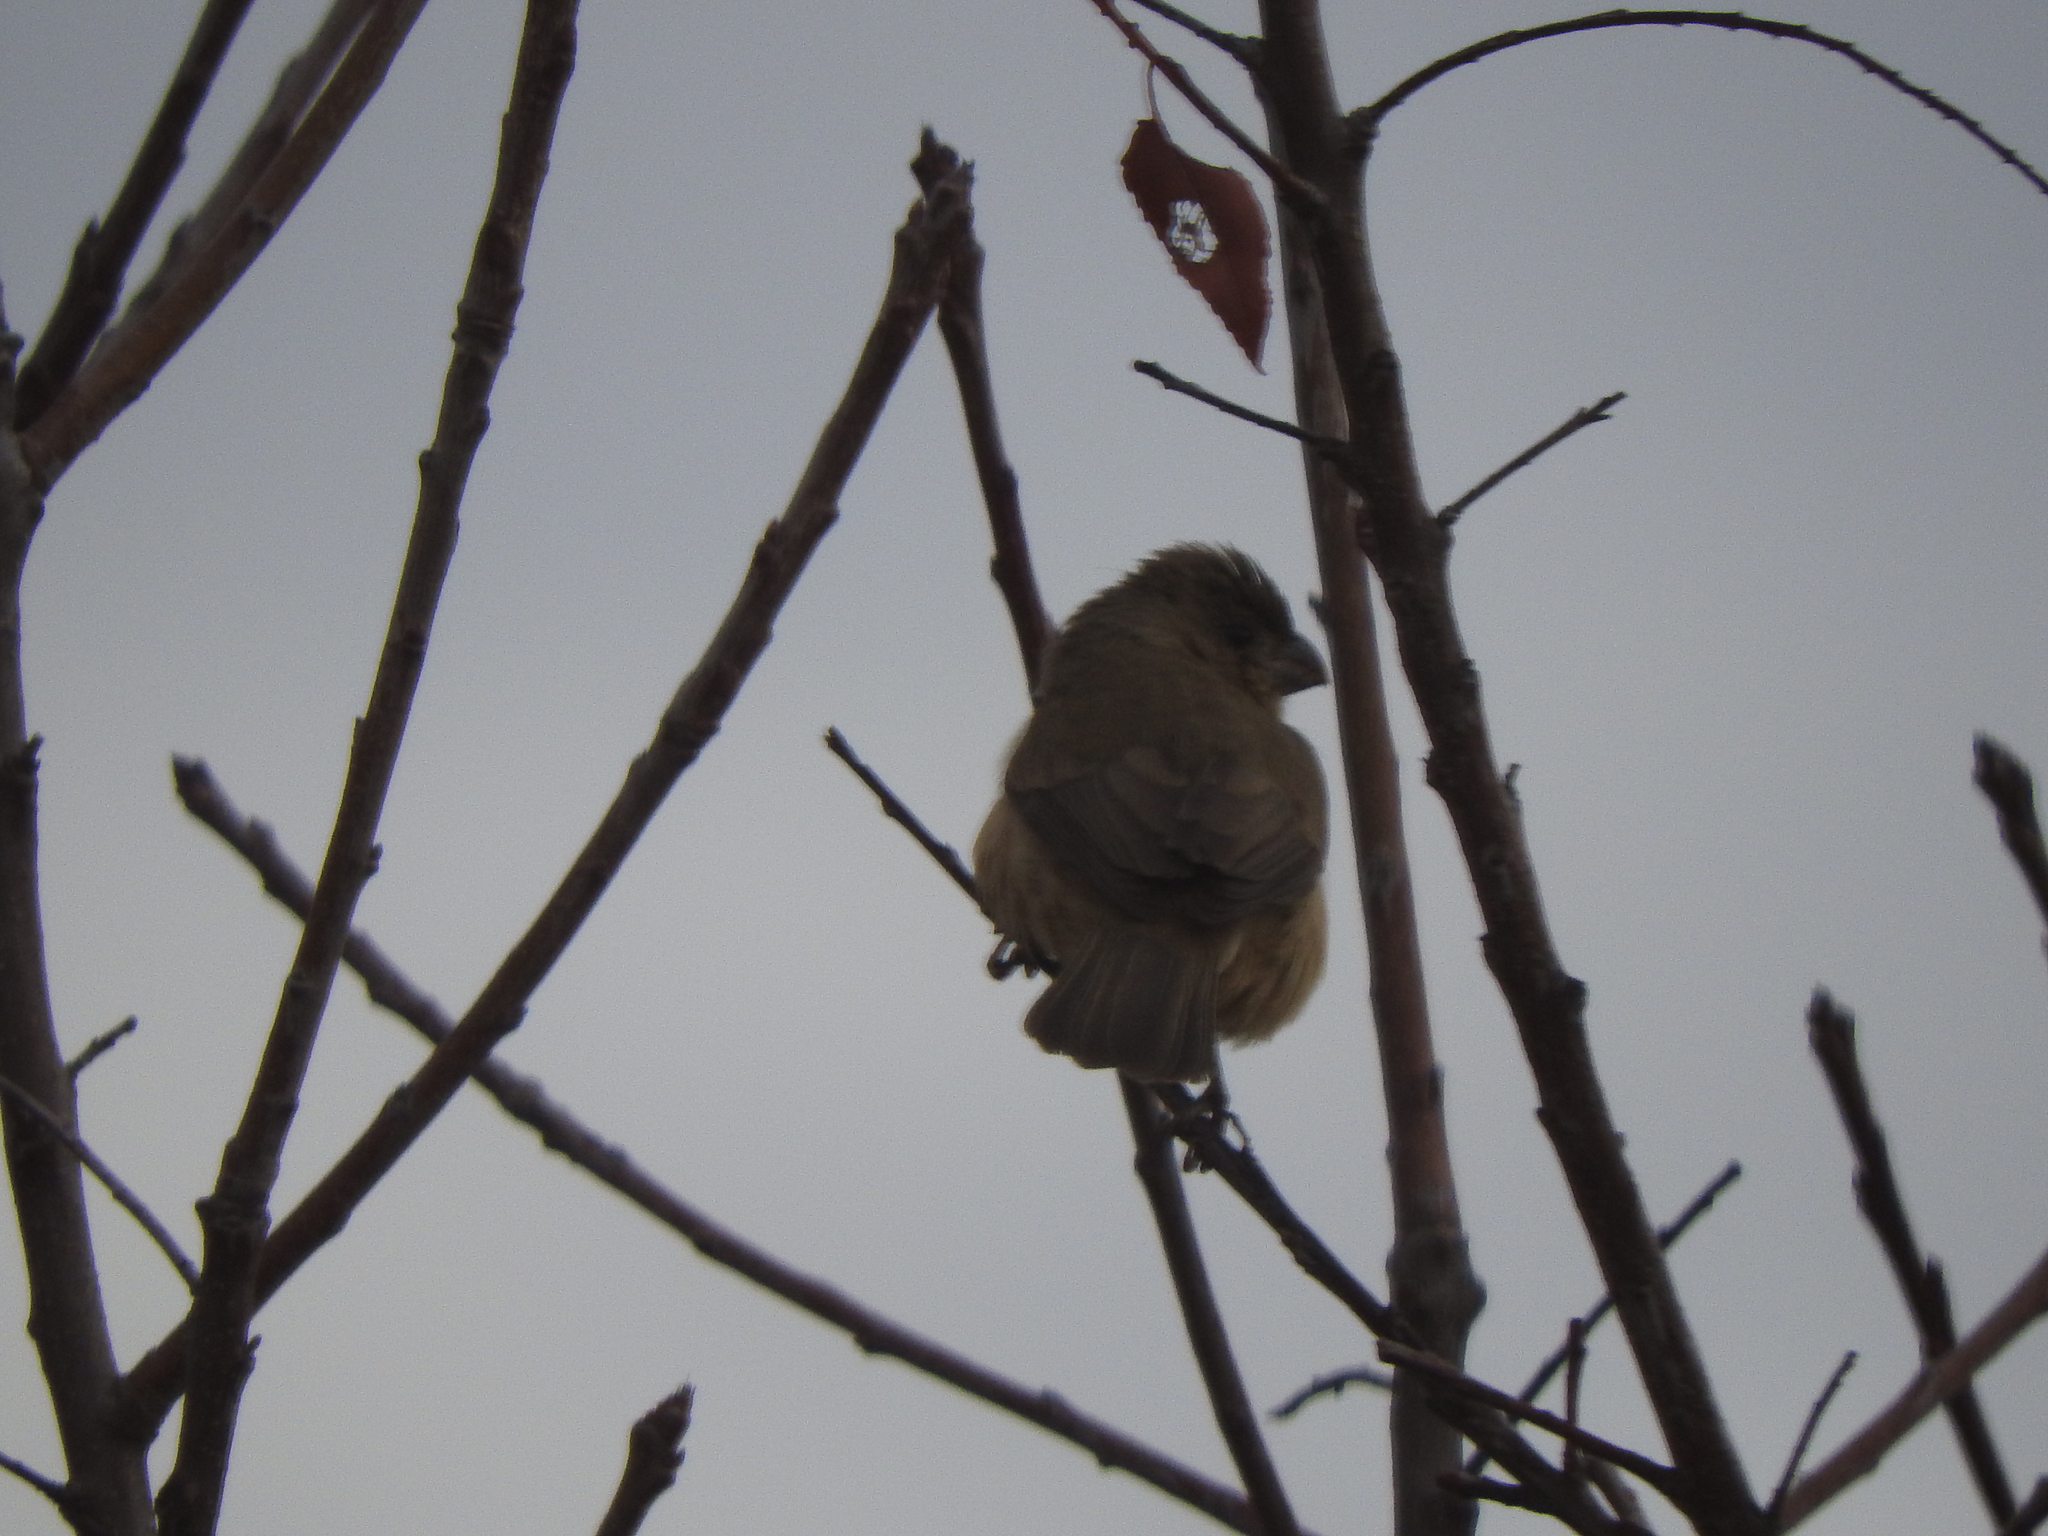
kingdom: Animalia
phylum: Chordata
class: Aves
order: Passeriformes
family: Thraupidae
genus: Sporophila
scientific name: Sporophila torqueola
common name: White-collared seedeater
